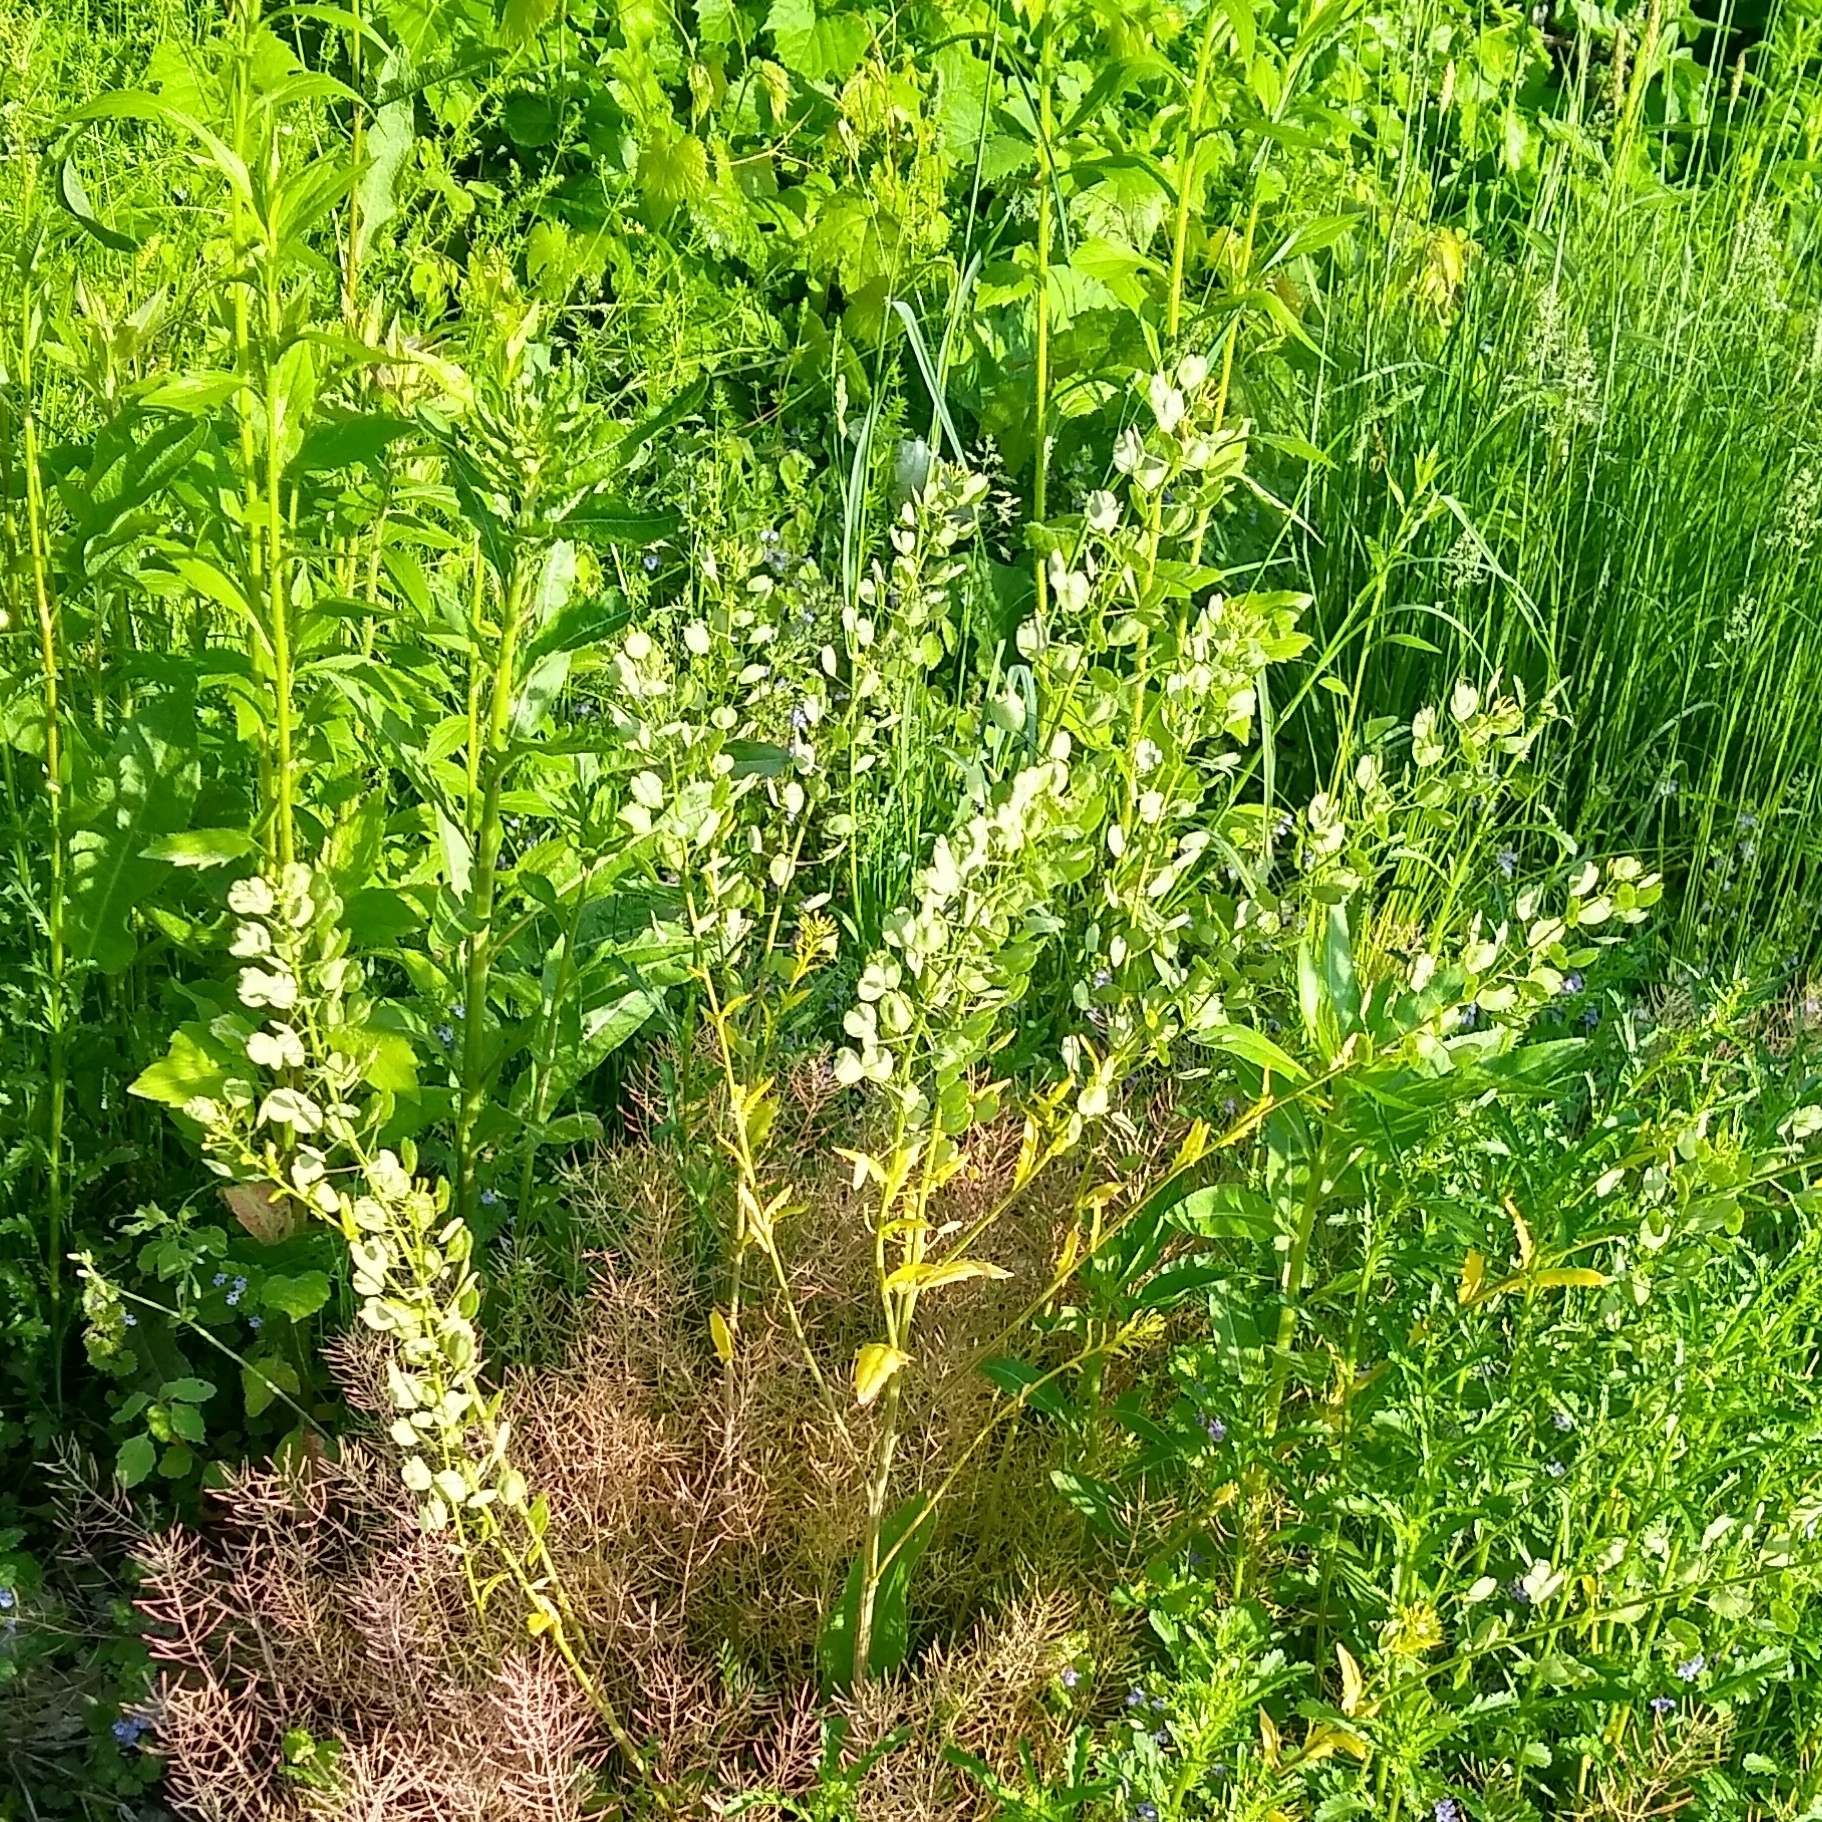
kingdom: Plantae
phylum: Tracheophyta
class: Magnoliopsida
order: Brassicales
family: Brassicaceae
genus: Thlaspi
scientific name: Thlaspi arvense
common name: Field pennycress
